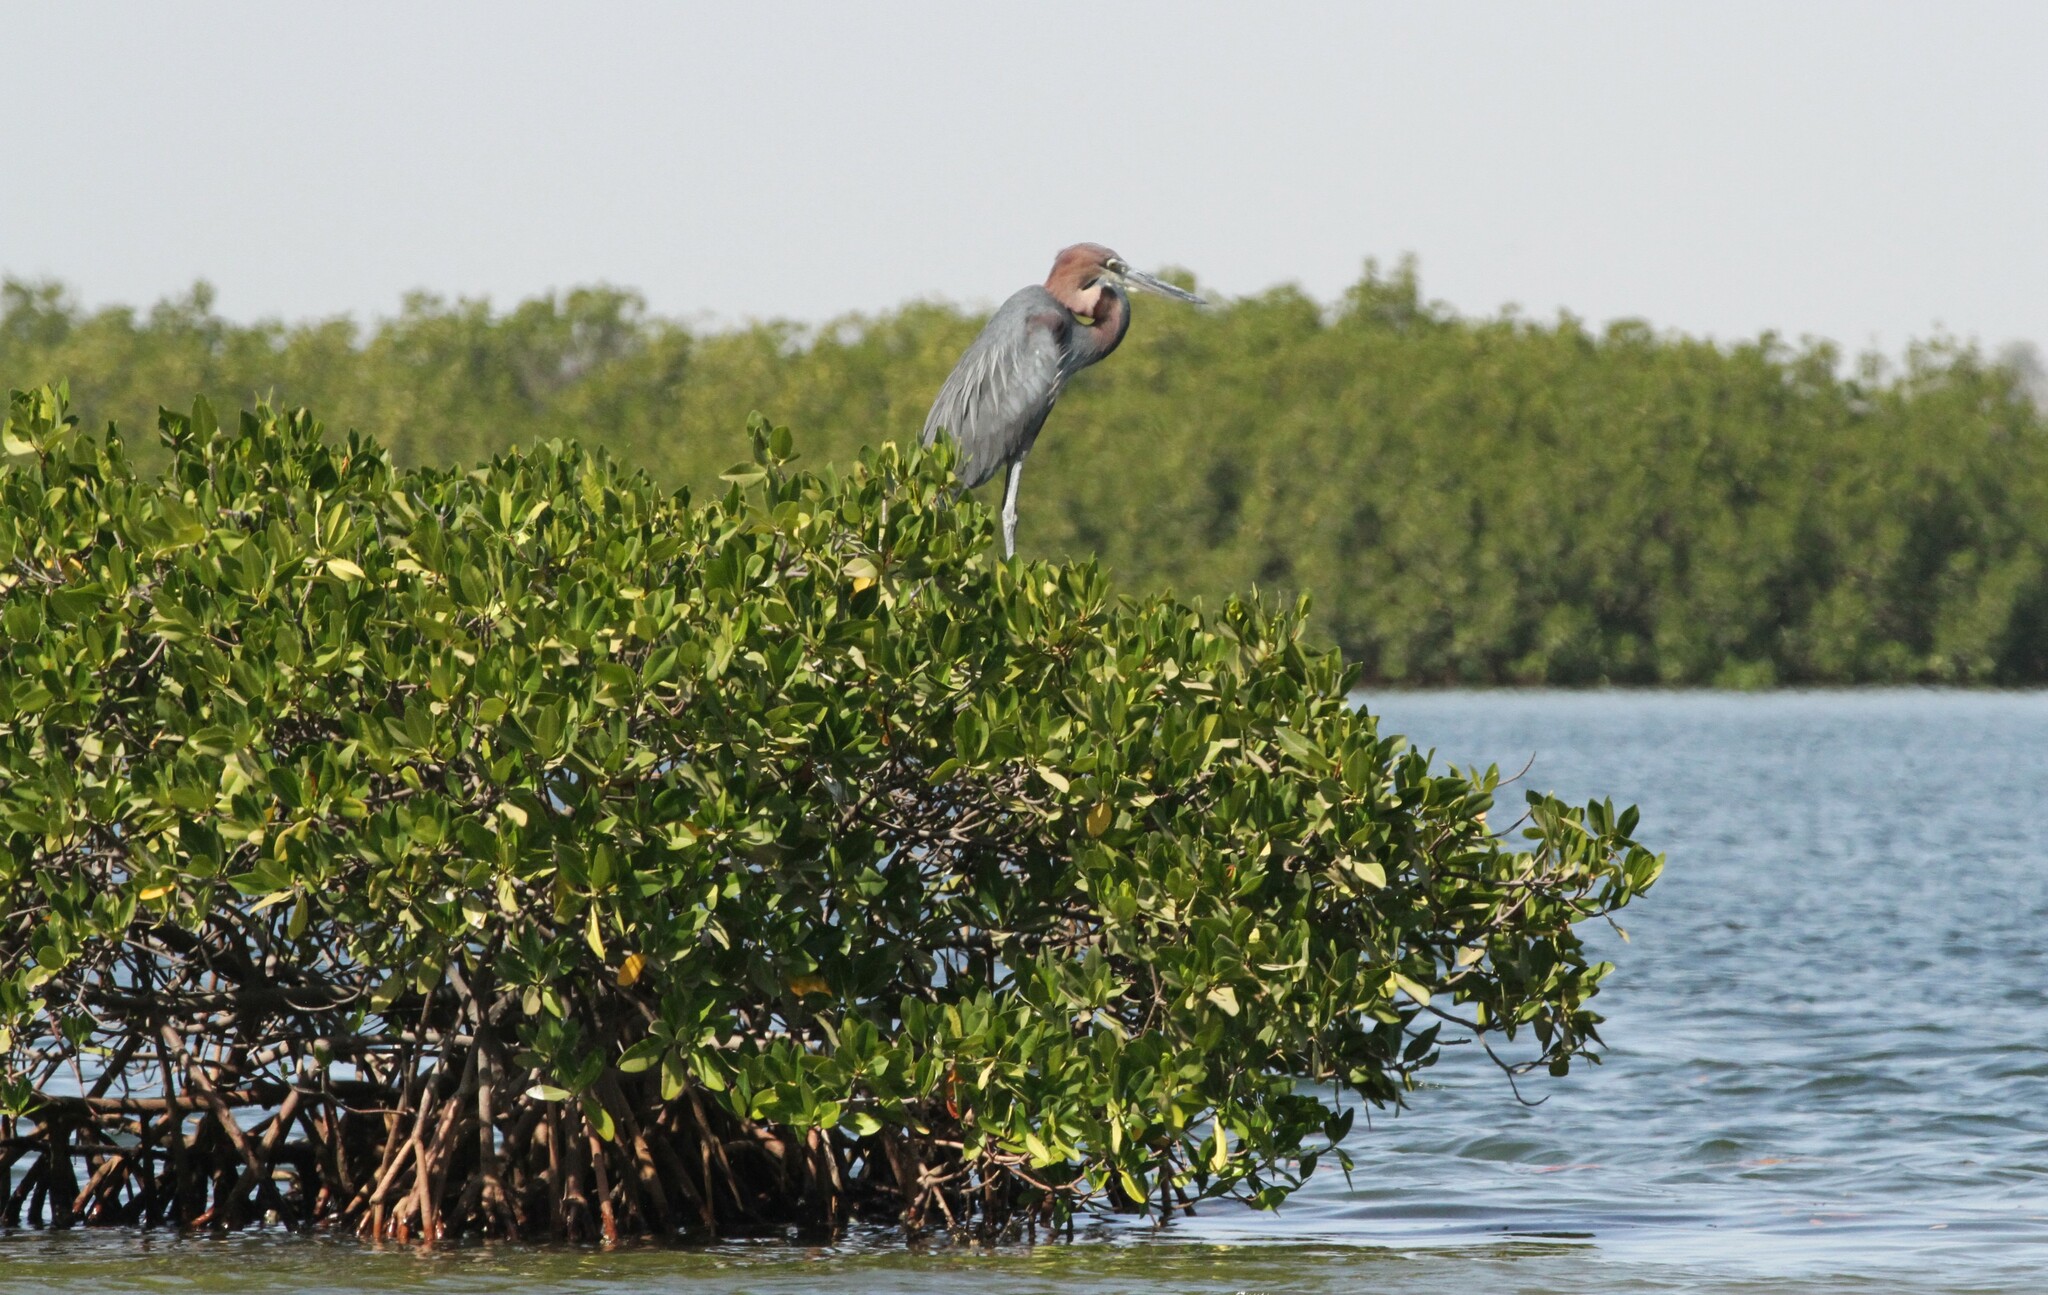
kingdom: Animalia
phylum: Chordata
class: Aves
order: Pelecaniformes
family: Ardeidae
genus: Ardea
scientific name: Ardea goliath
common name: Goliath heron
